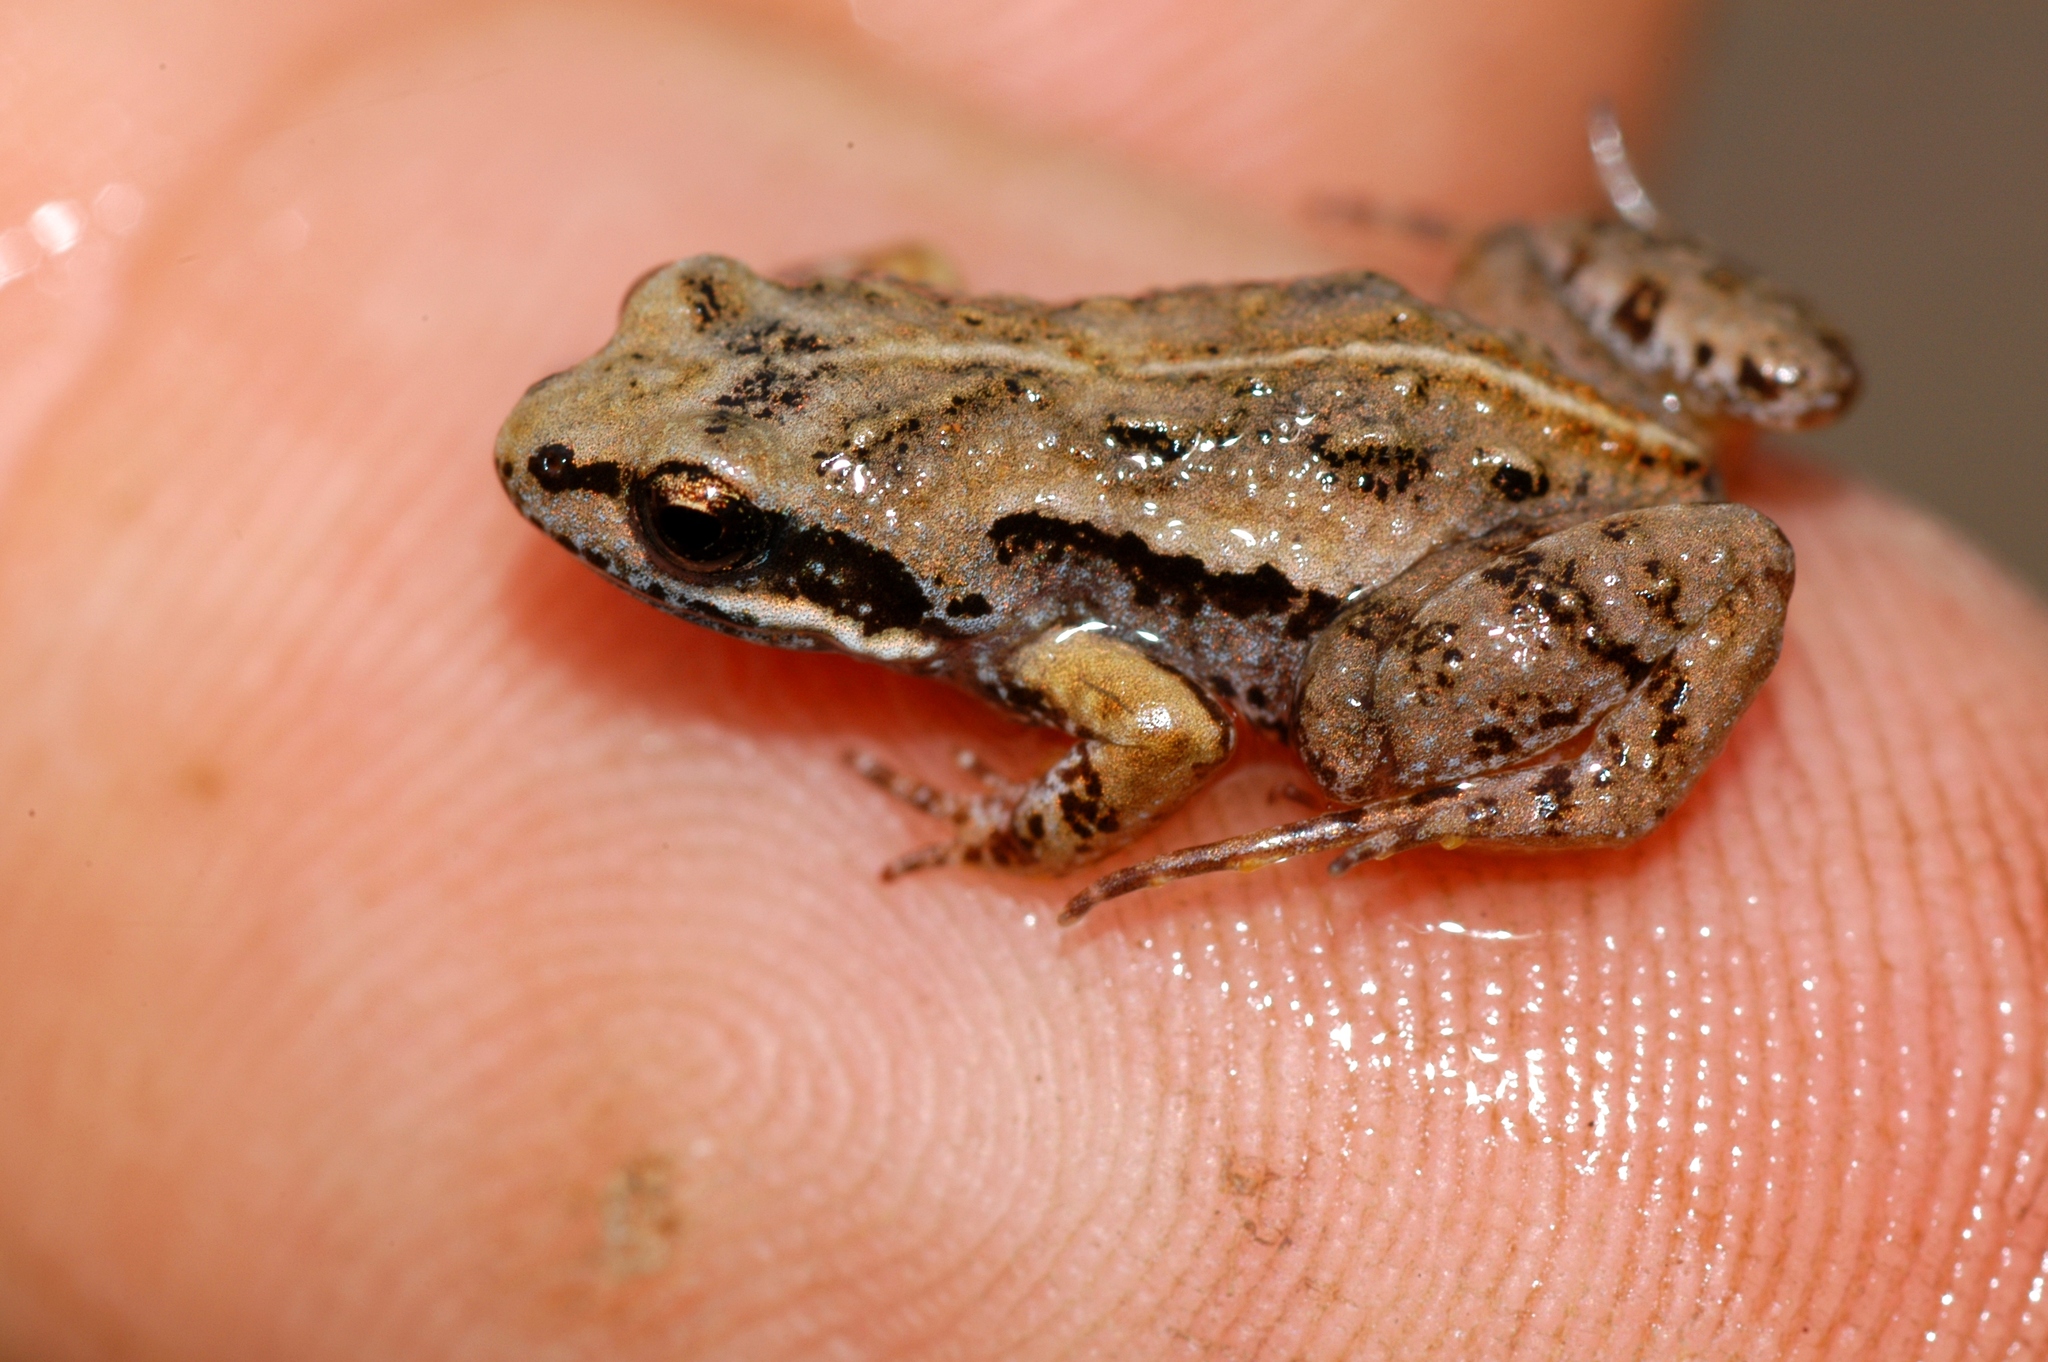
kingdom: Animalia
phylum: Chordata
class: Amphibia
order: Anura
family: Pyxicephalidae
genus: Cacosternum
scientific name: Cacosternum parvum
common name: Mountain caco
